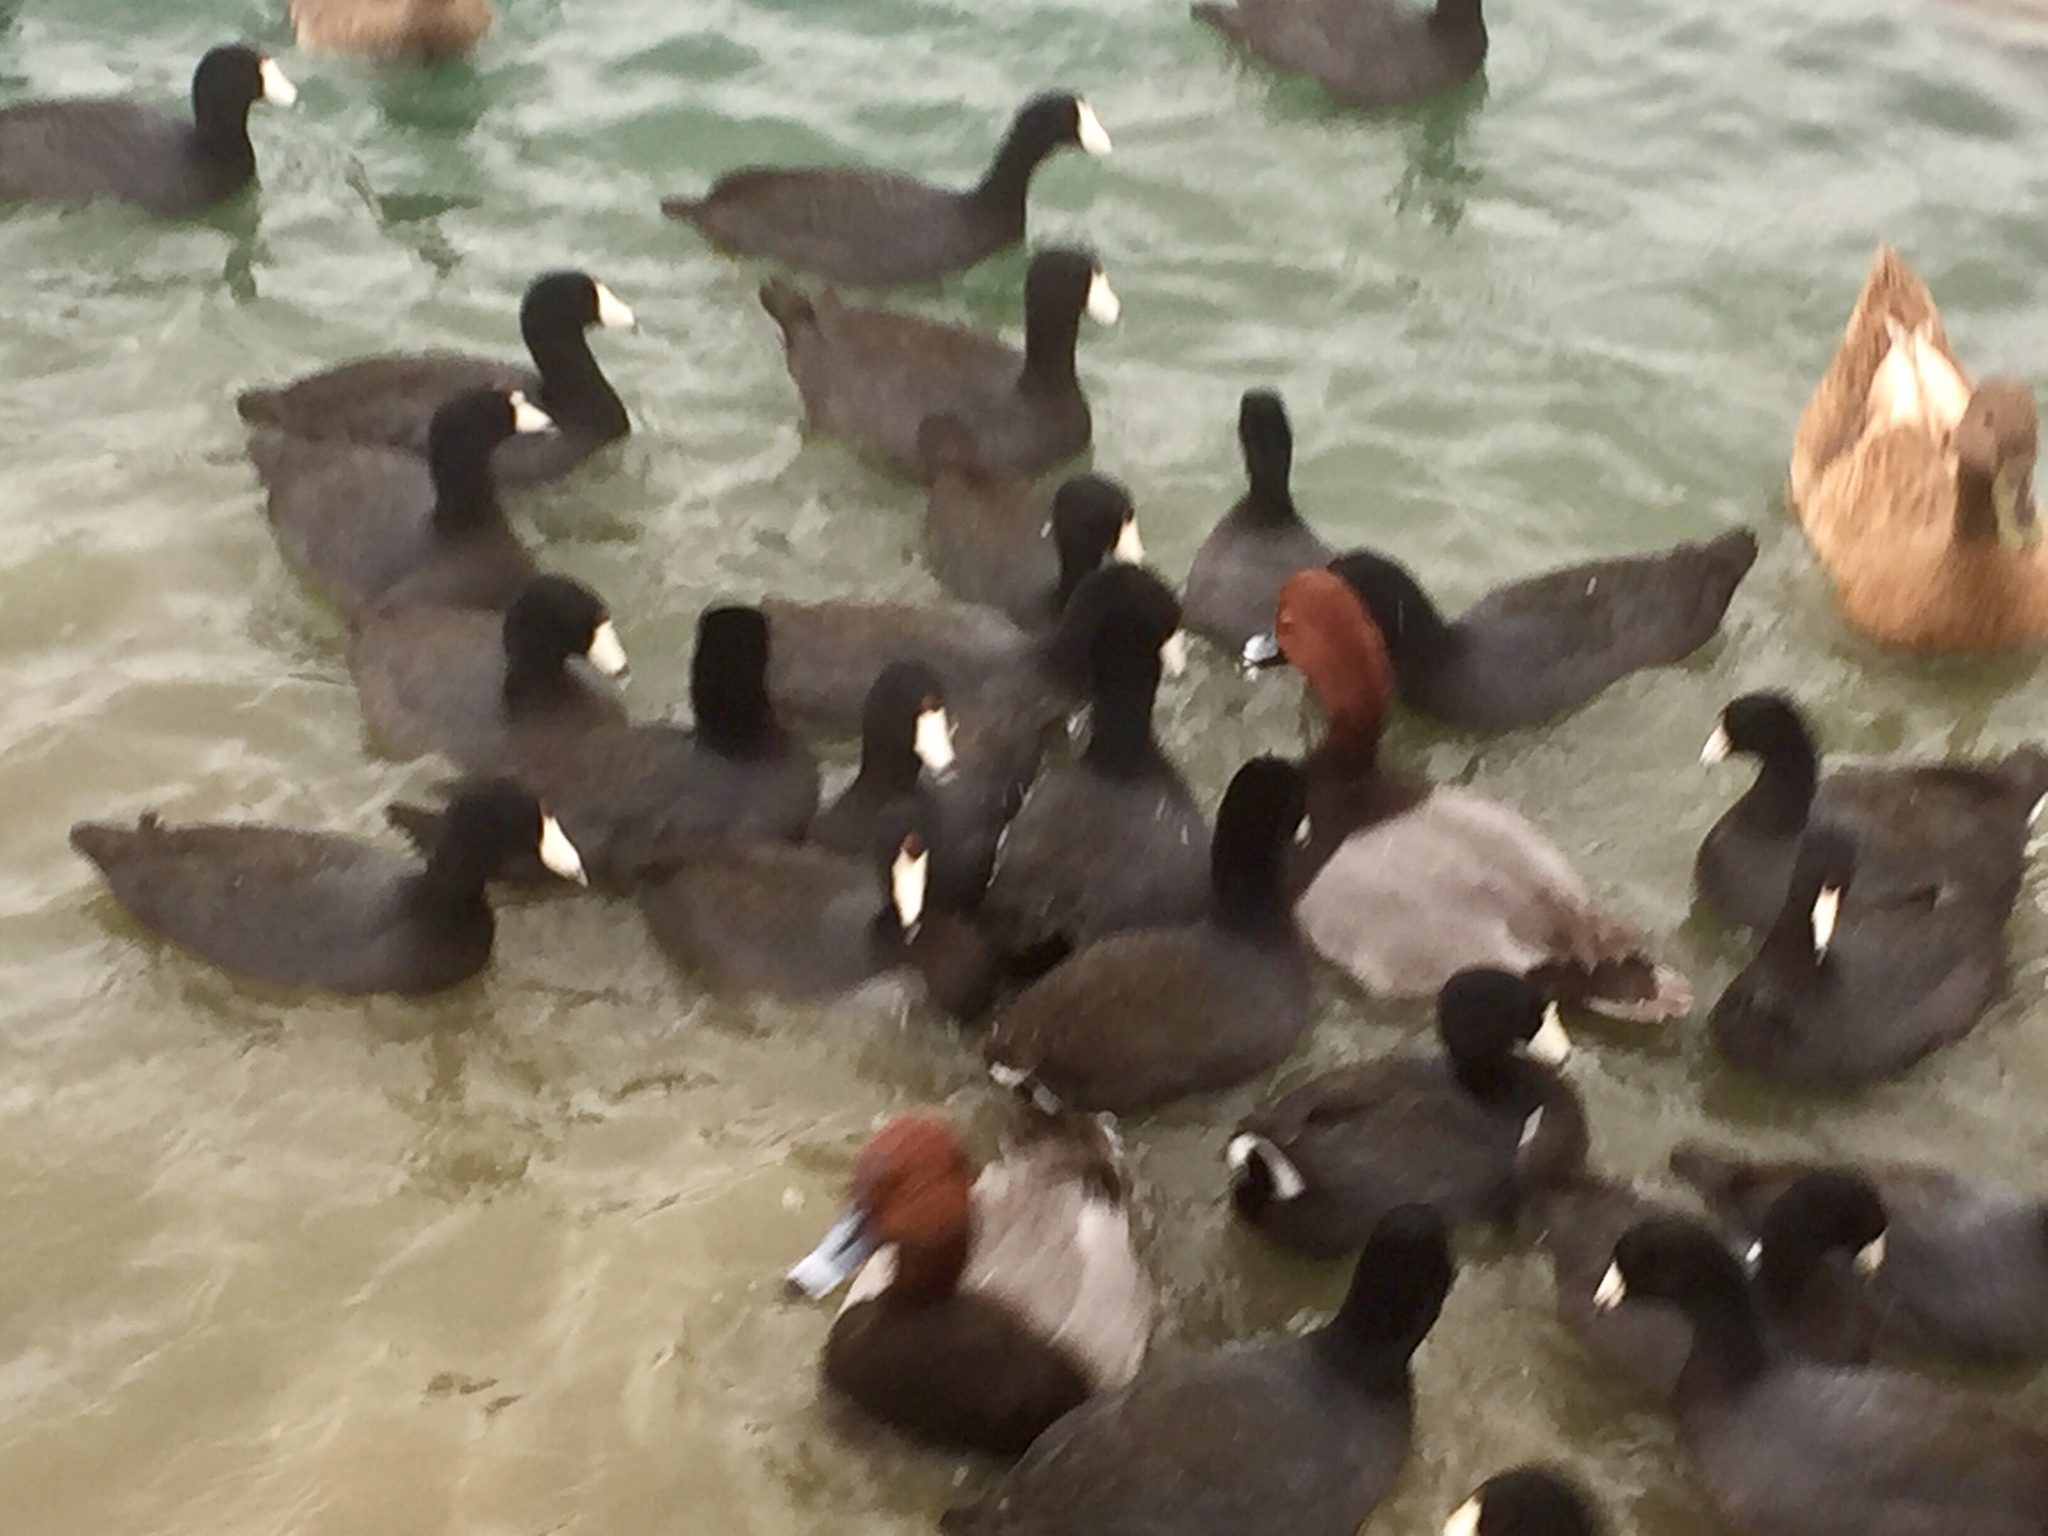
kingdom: Animalia
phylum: Chordata
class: Aves
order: Anseriformes
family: Anatidae
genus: Aythya
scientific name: Aythya americana
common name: Redhead
